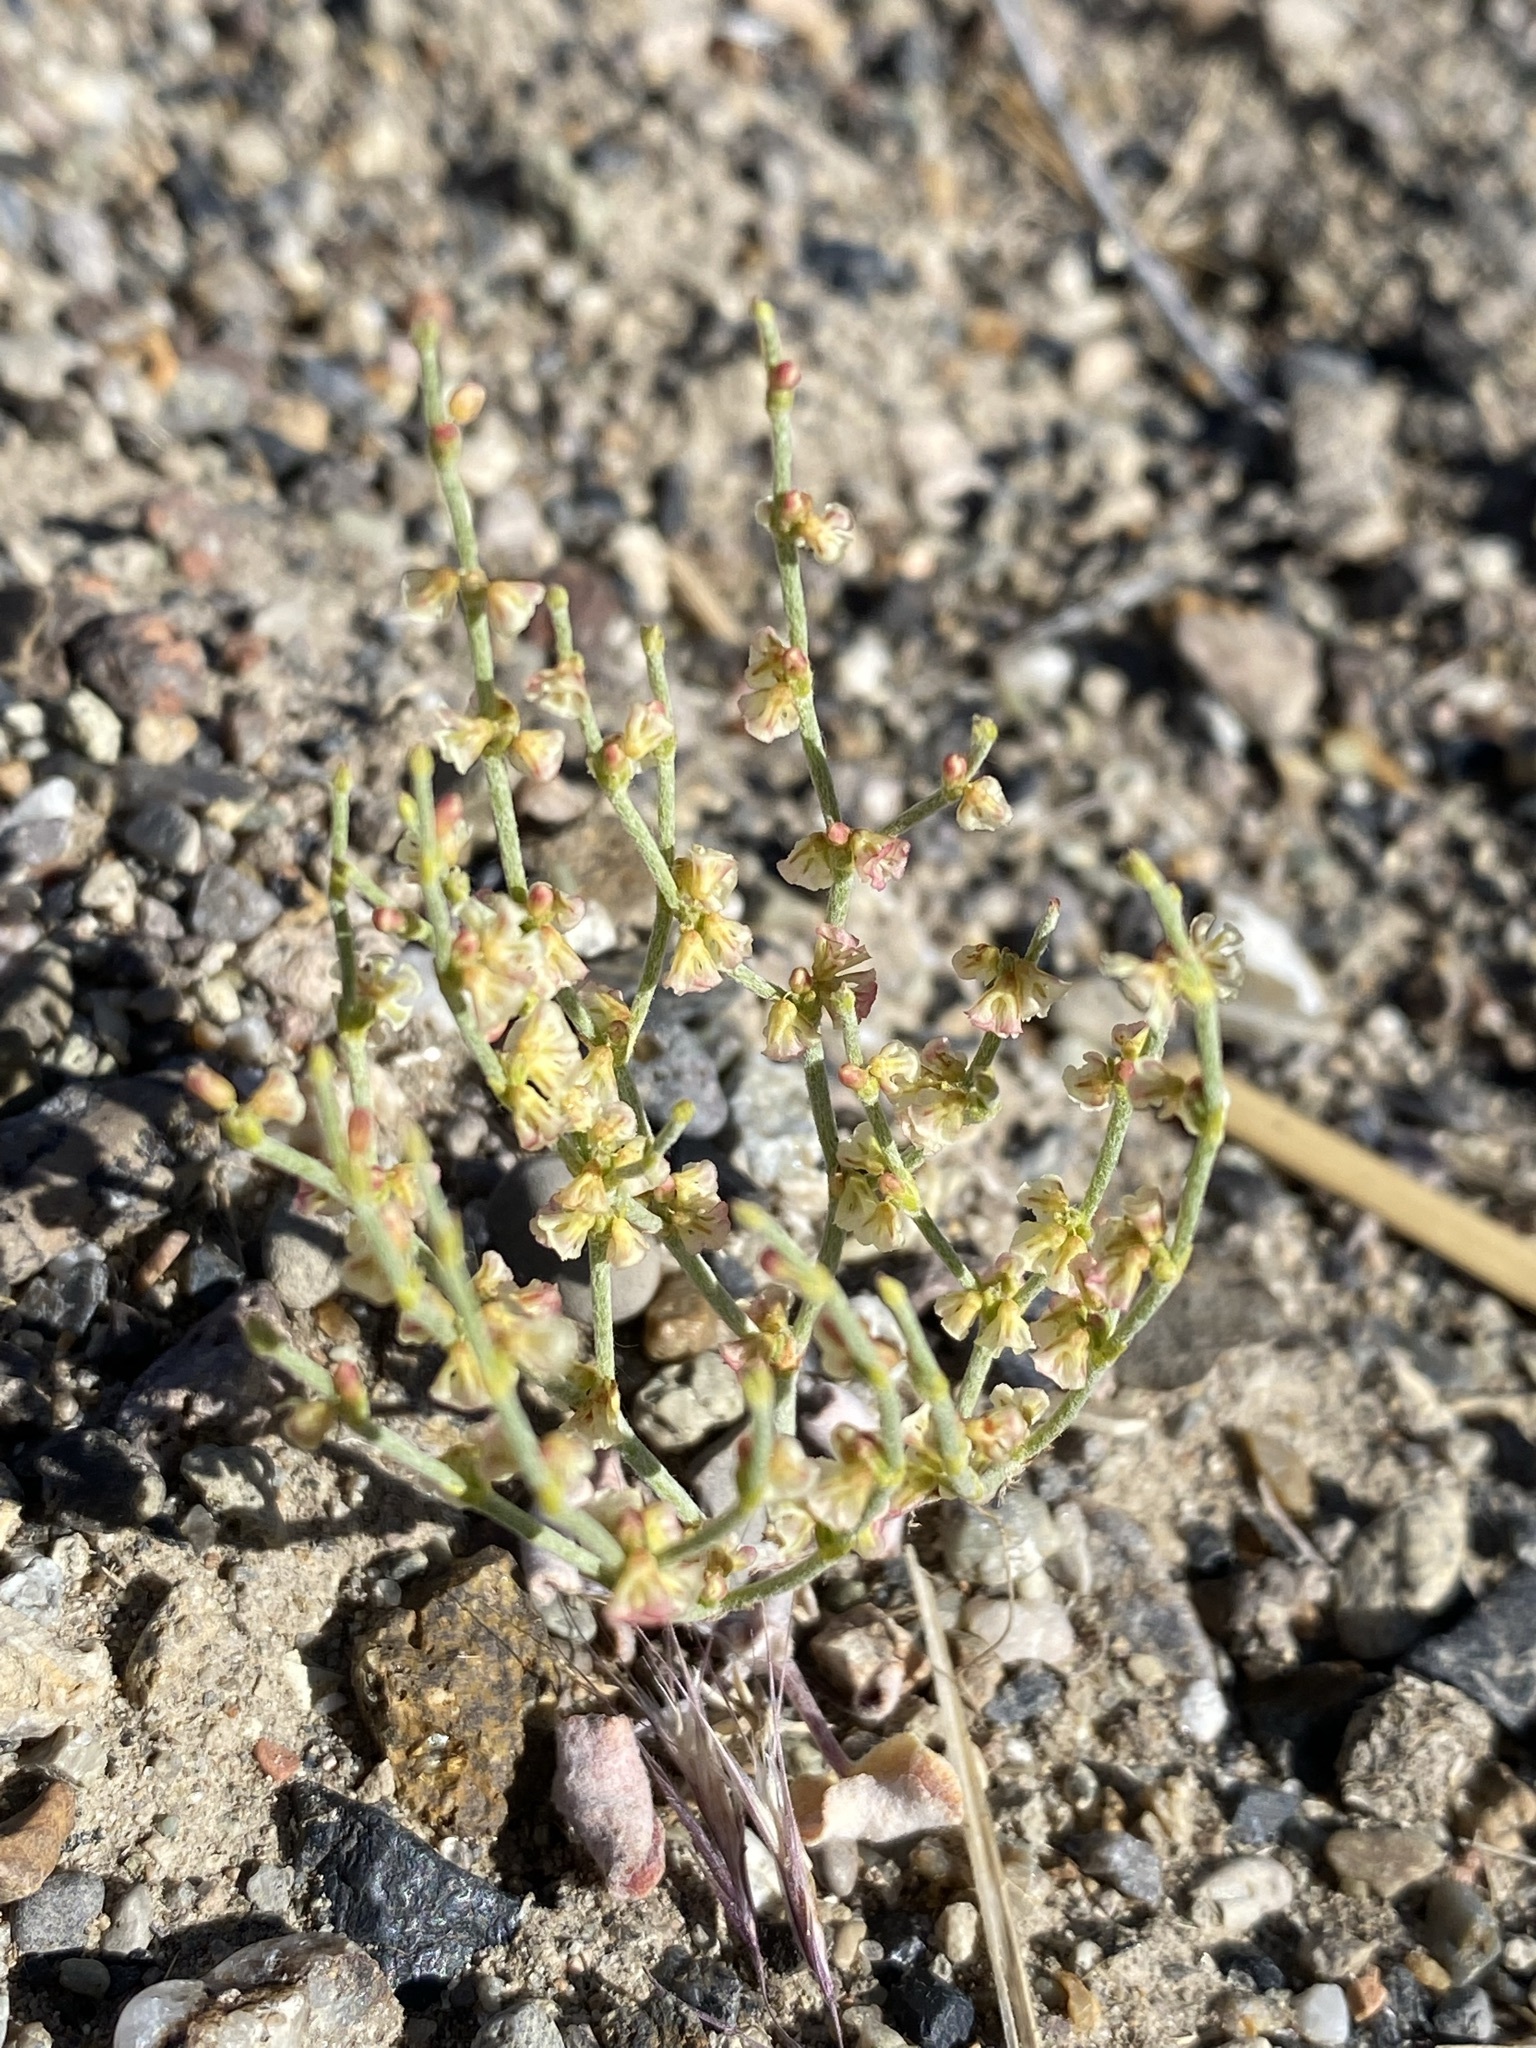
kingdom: Plantae
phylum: Tracheophyta
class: Magnoliopsida
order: Caryophyllales
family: Polygonaceae
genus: Eriogonum
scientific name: Eriogonum nidularium
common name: Bird's-nest wild buckwheat
